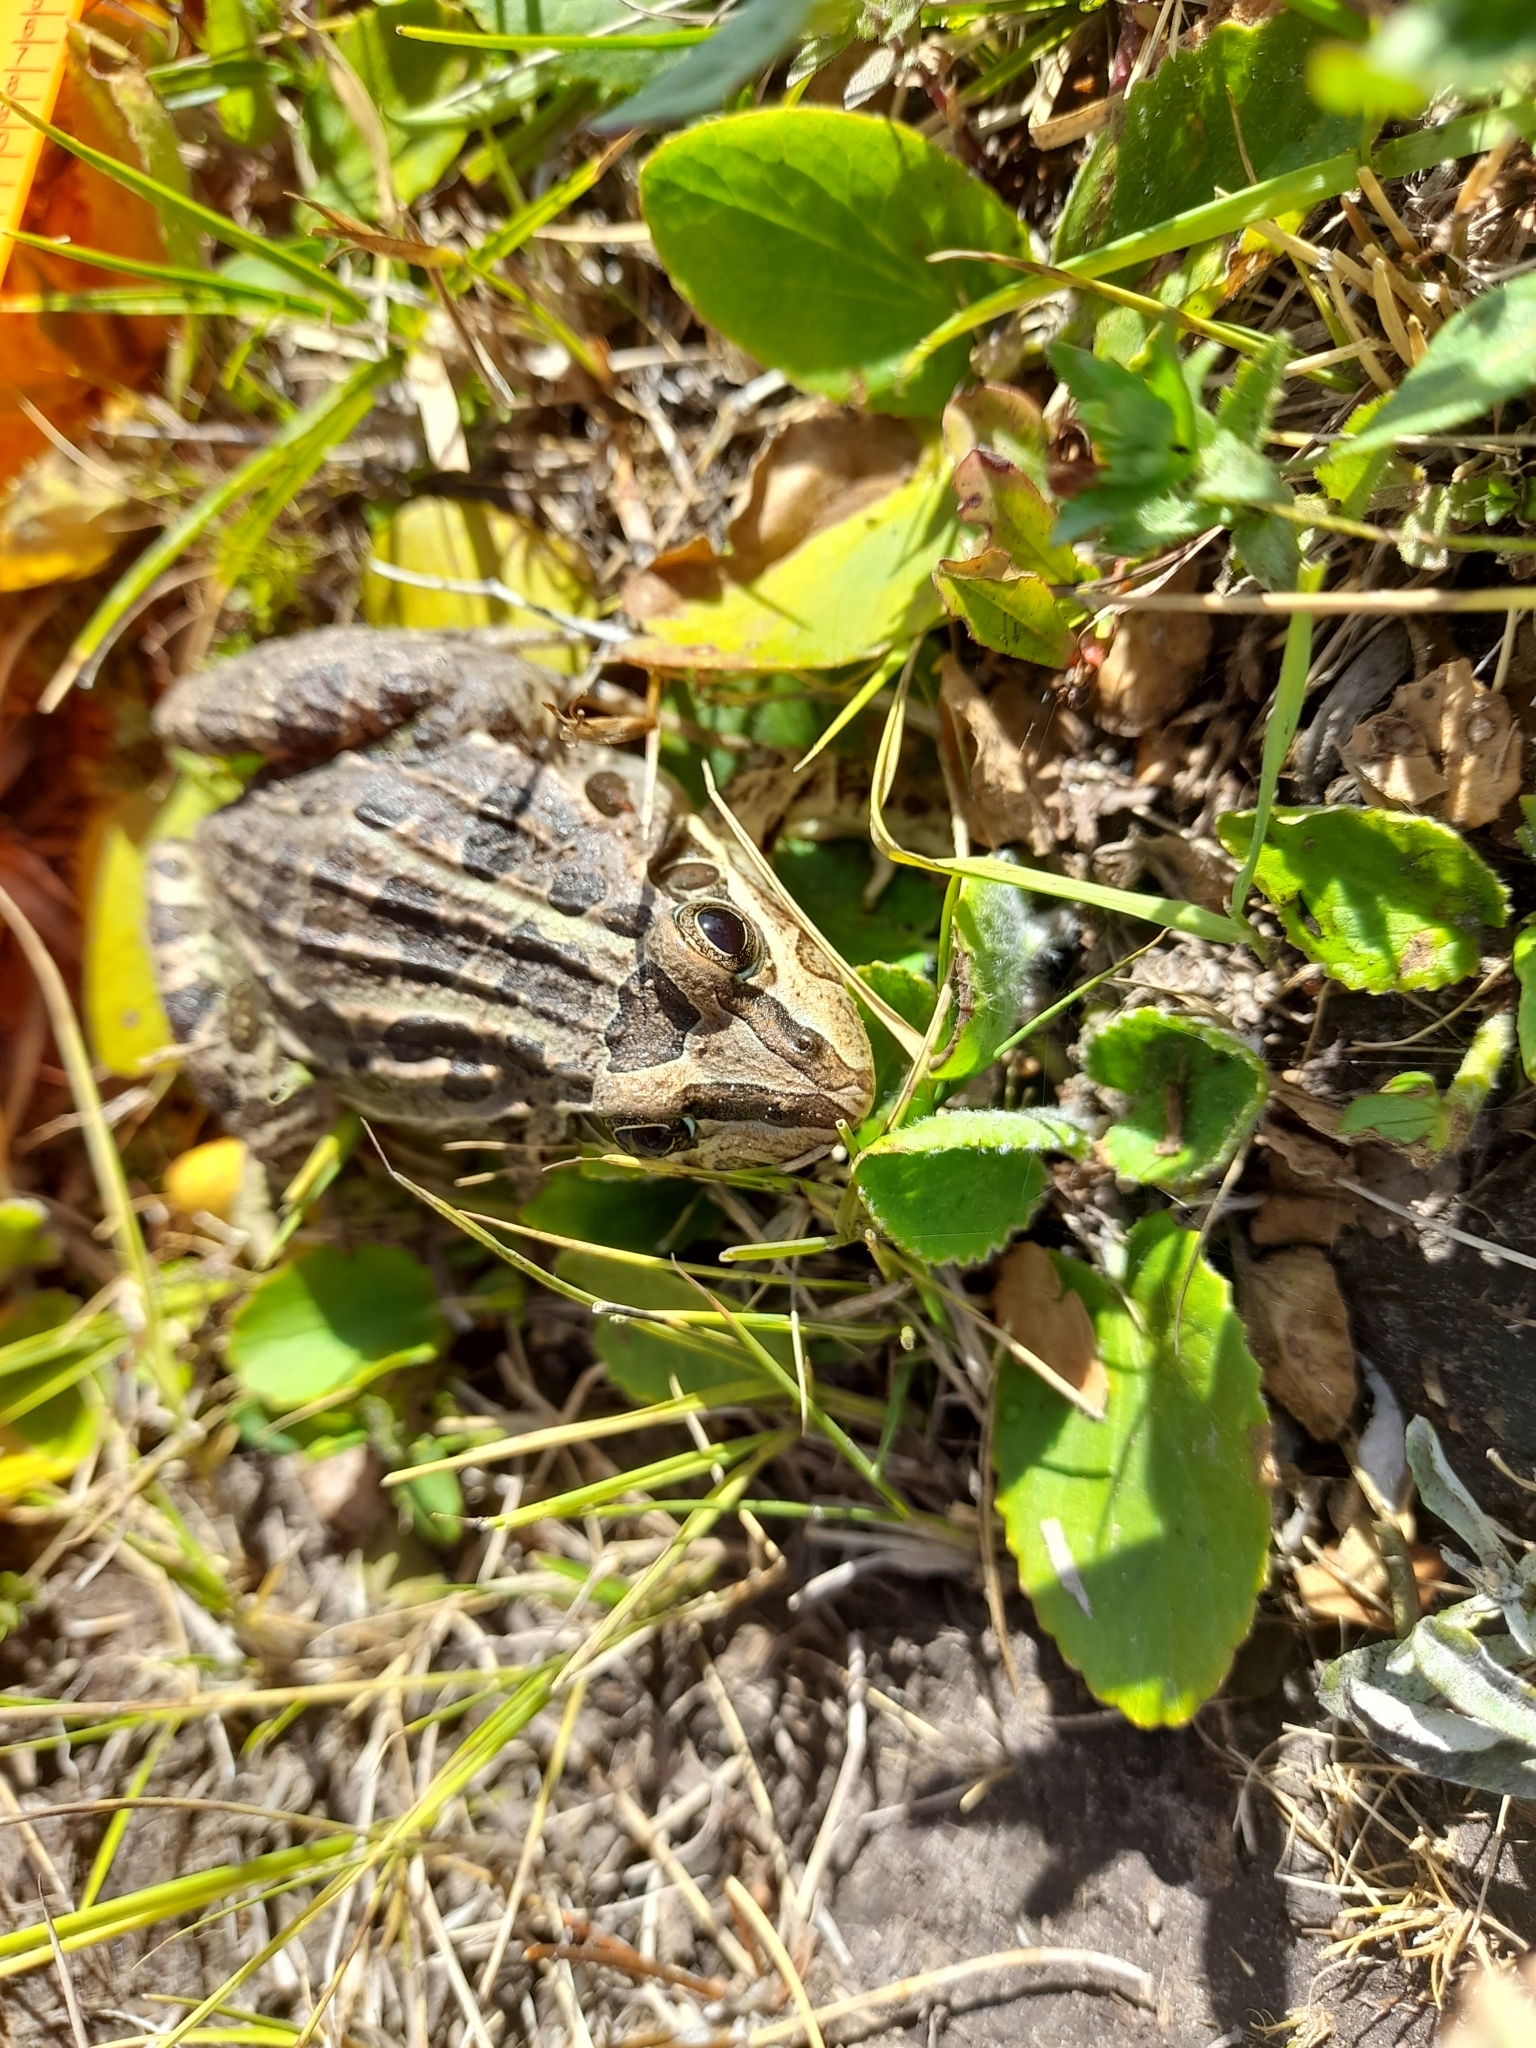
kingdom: Animalia
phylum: Chordata
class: Amphibia
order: Anura
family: Leptodactylidae
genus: Leptodactylus
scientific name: Leptodactylus luctator
